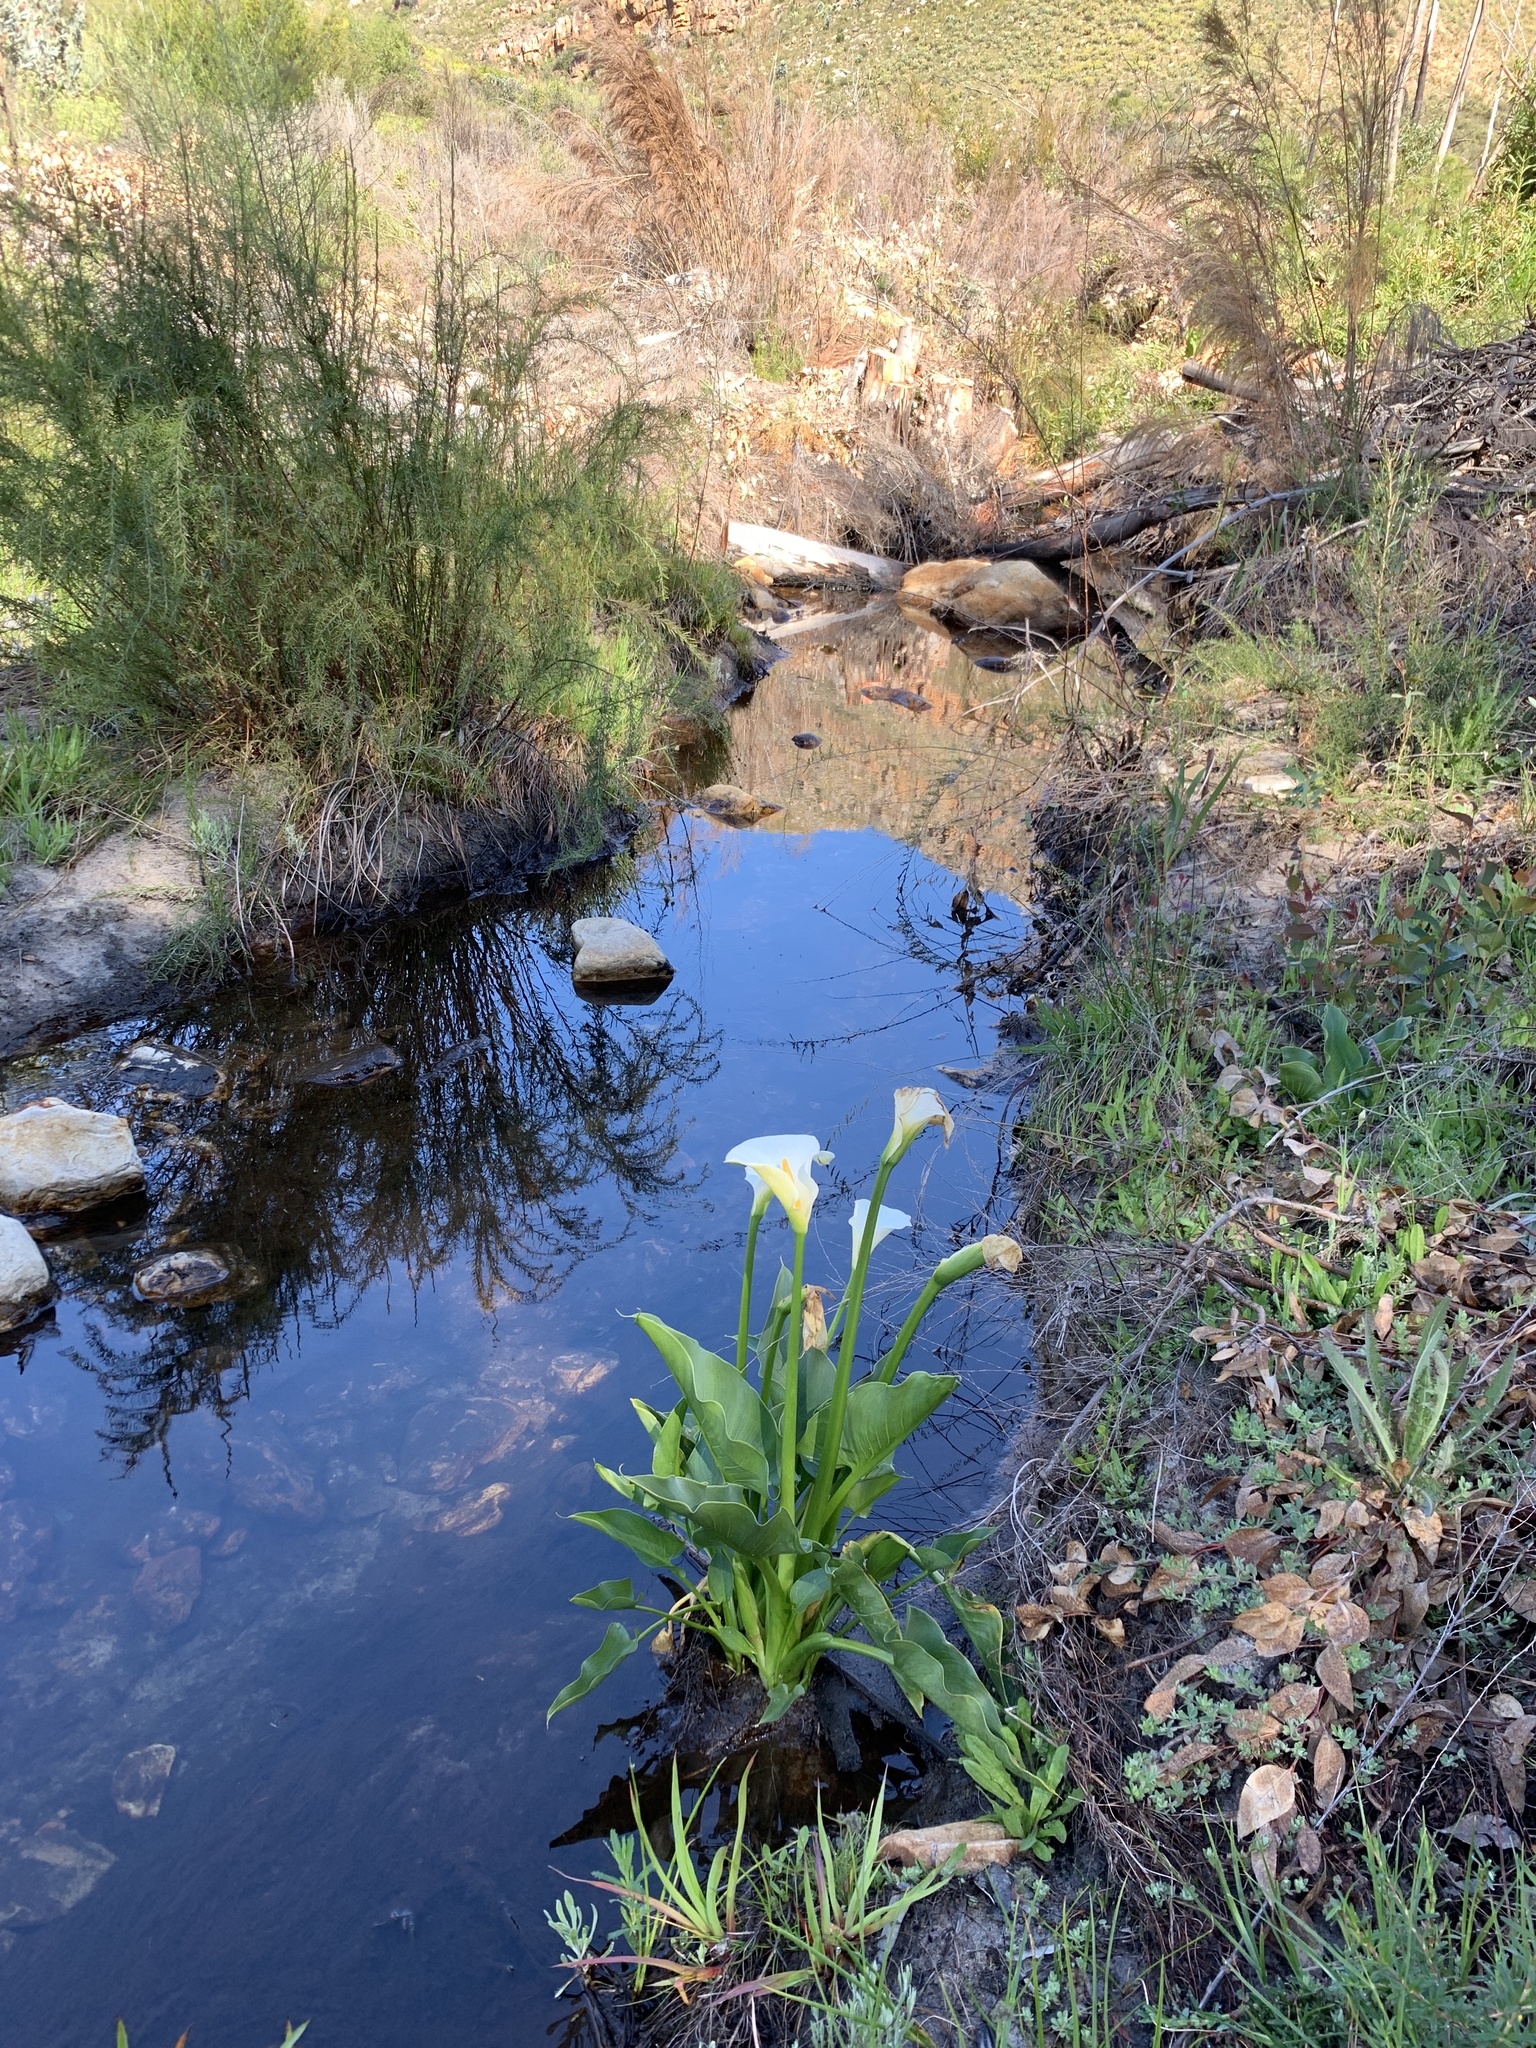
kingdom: Plantae
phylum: Tracheophyta
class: Liliopsida
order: Alismatales
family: Araceae
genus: Zantedeschia
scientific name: Zantedeschia aethiopica
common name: Altar-lily
